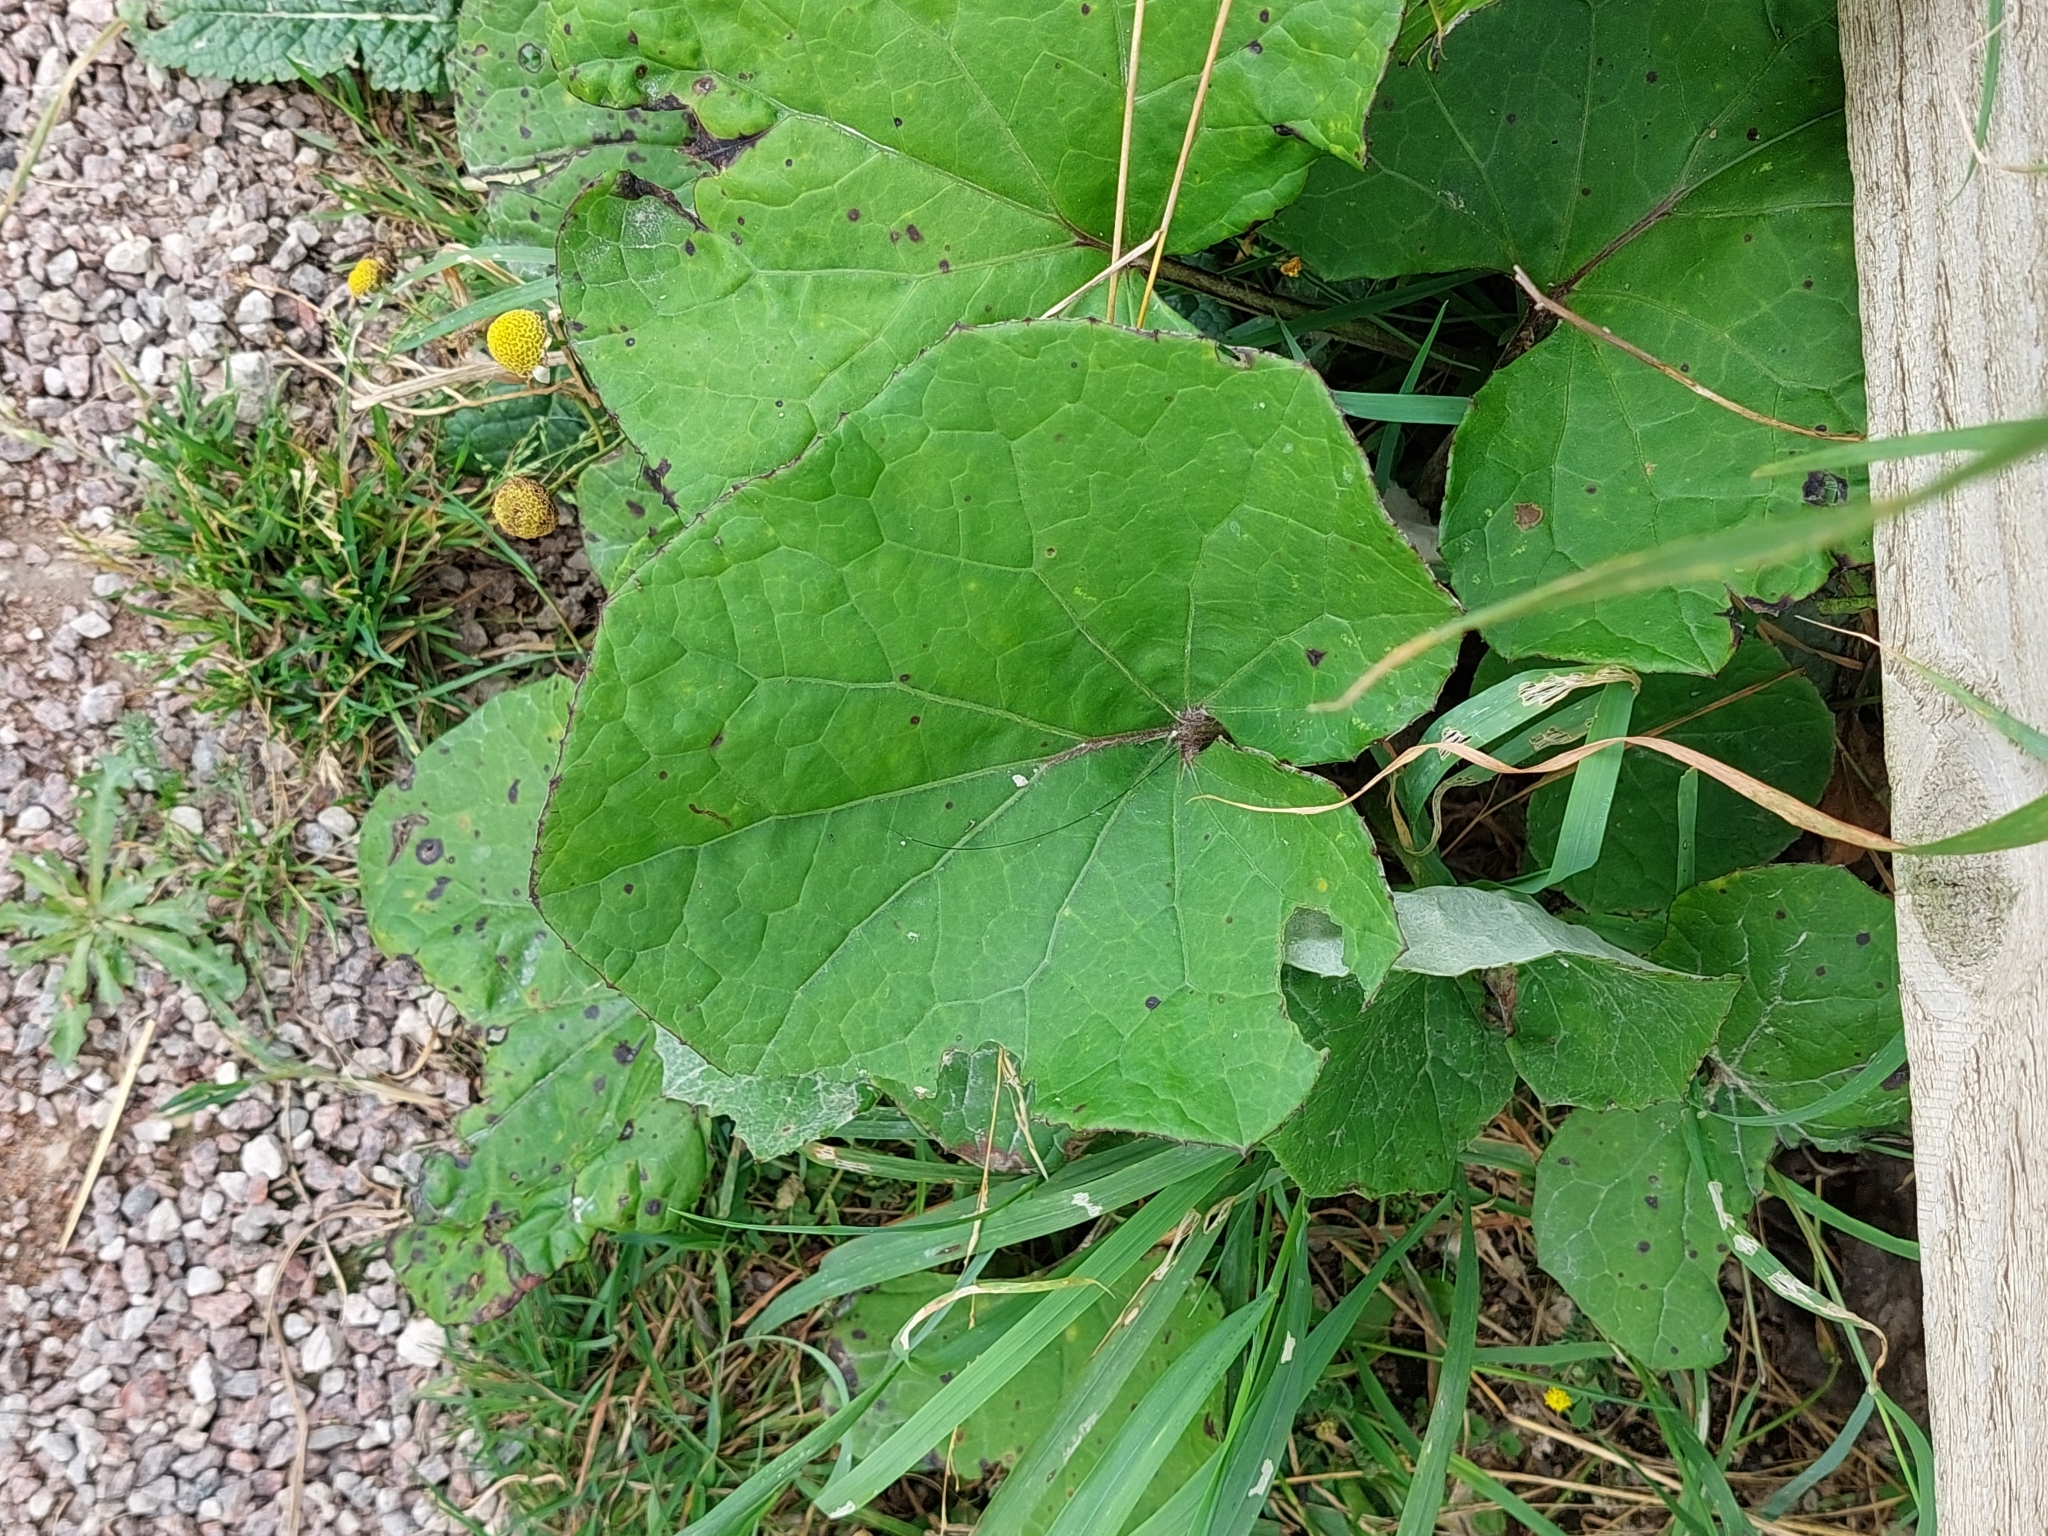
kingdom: Plantae
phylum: Tracheophyta
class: Magnoliopsida
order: Asterales
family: Asteraceae
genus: Tussilago
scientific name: Tussilago farfara
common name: Coltsfoot
